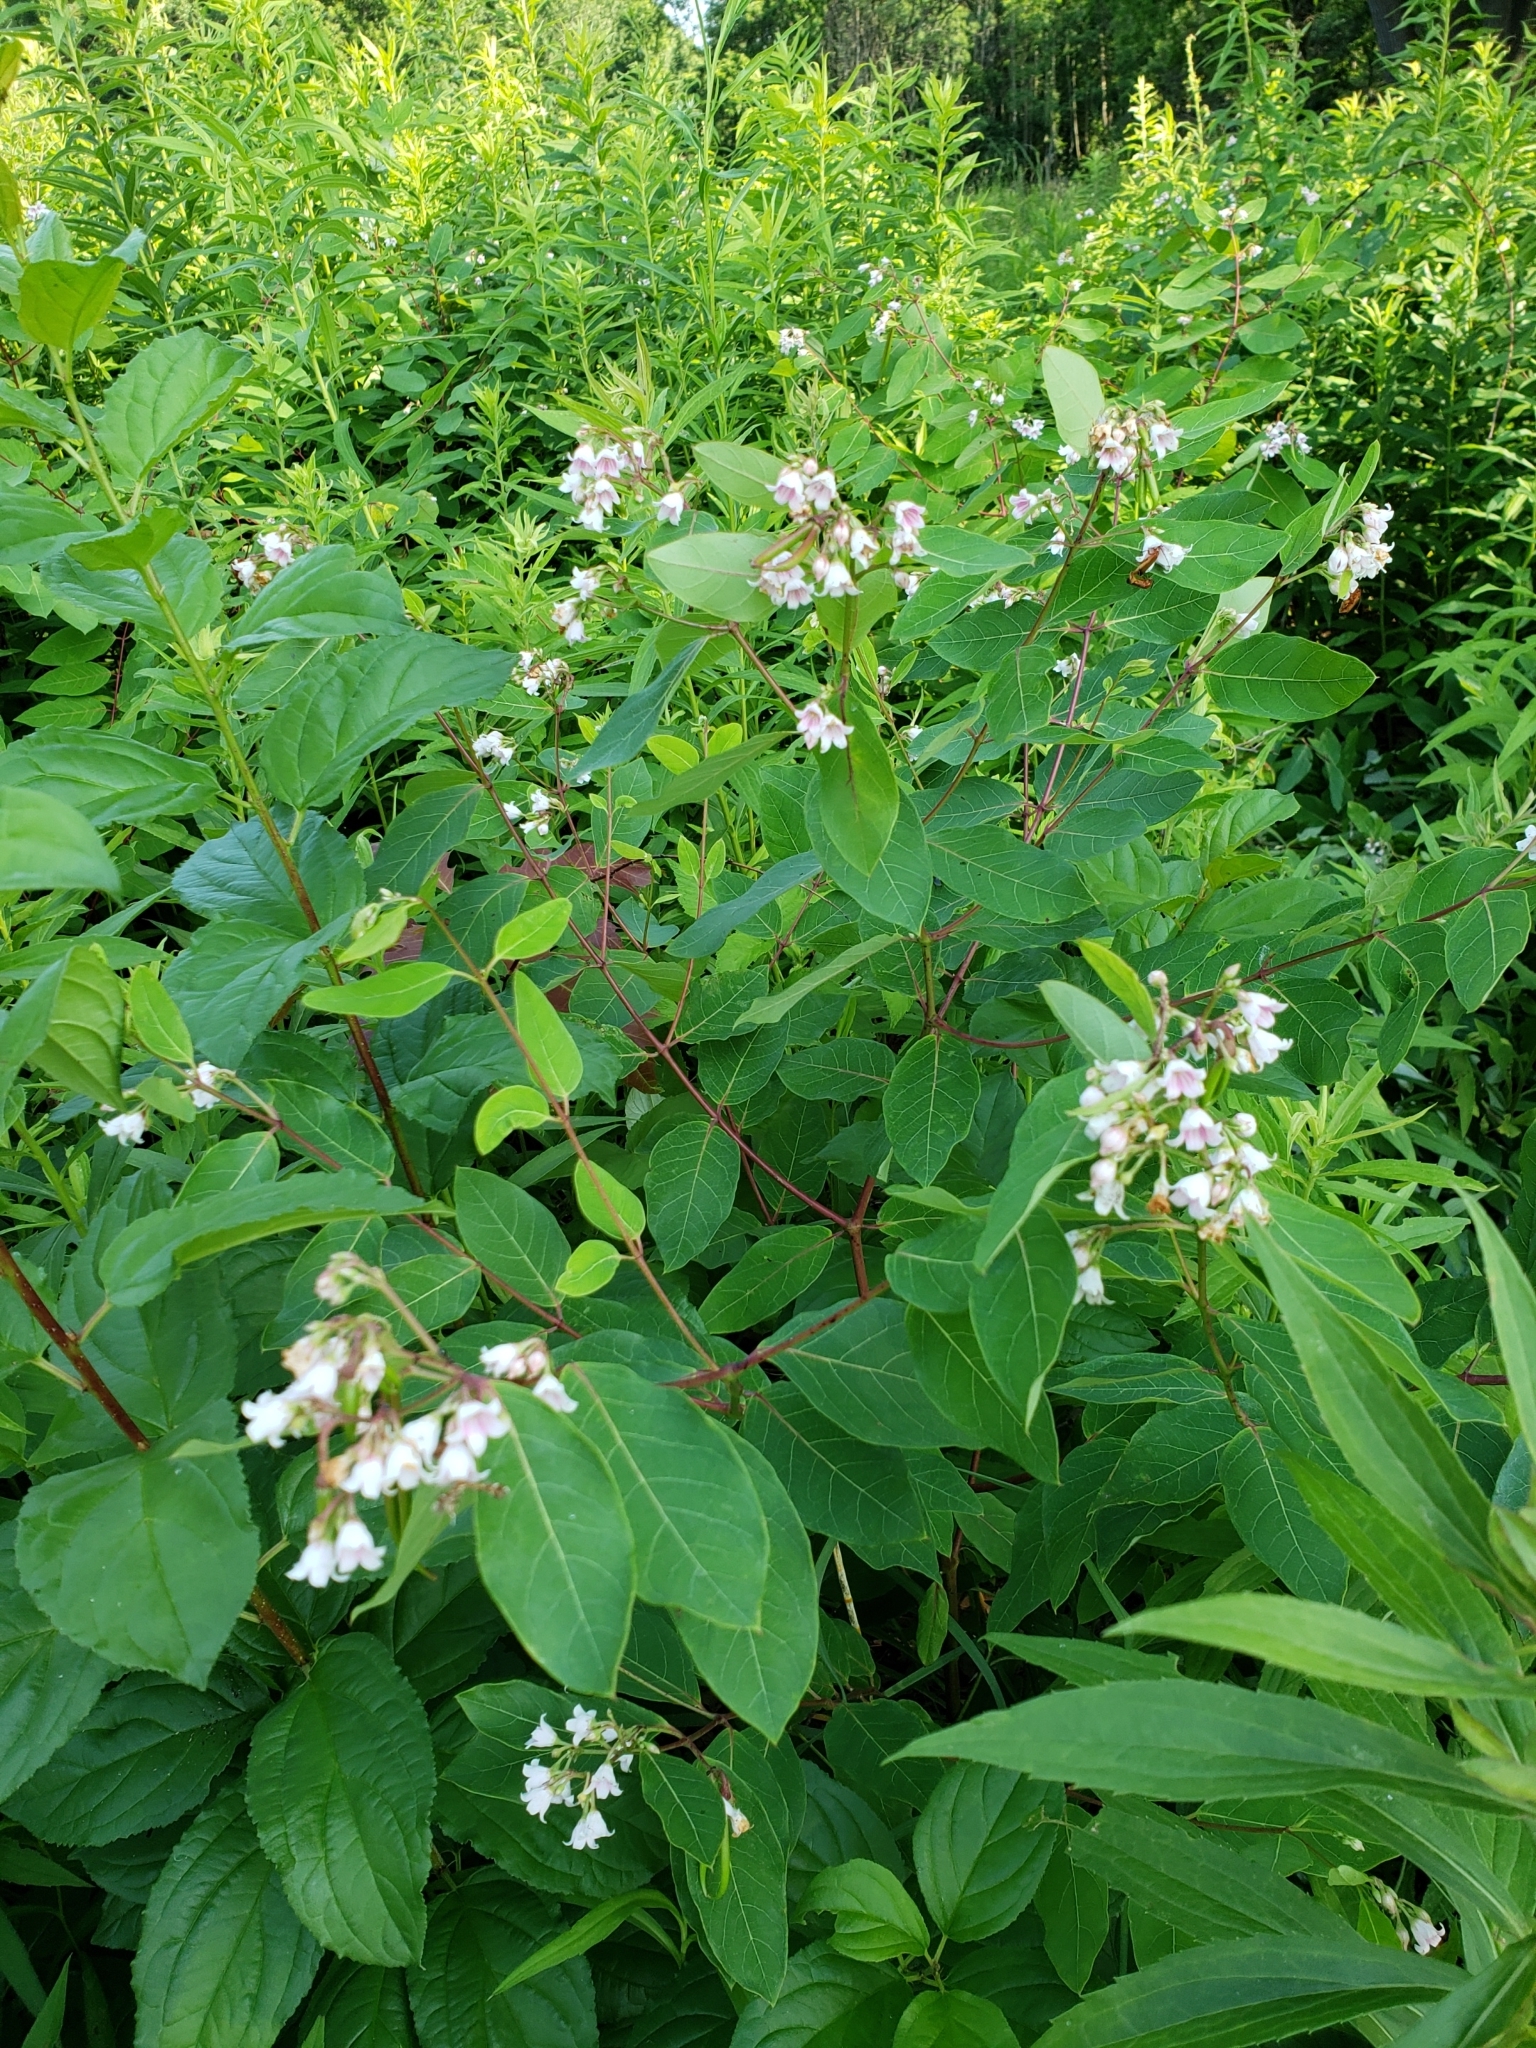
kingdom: Plantae
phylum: Tracheophyta
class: Magnoliopsida
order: Gentianales
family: Apocynaceae
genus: Apocynum
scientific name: Apocynum androsaemifolium
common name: Spreading dogbane
